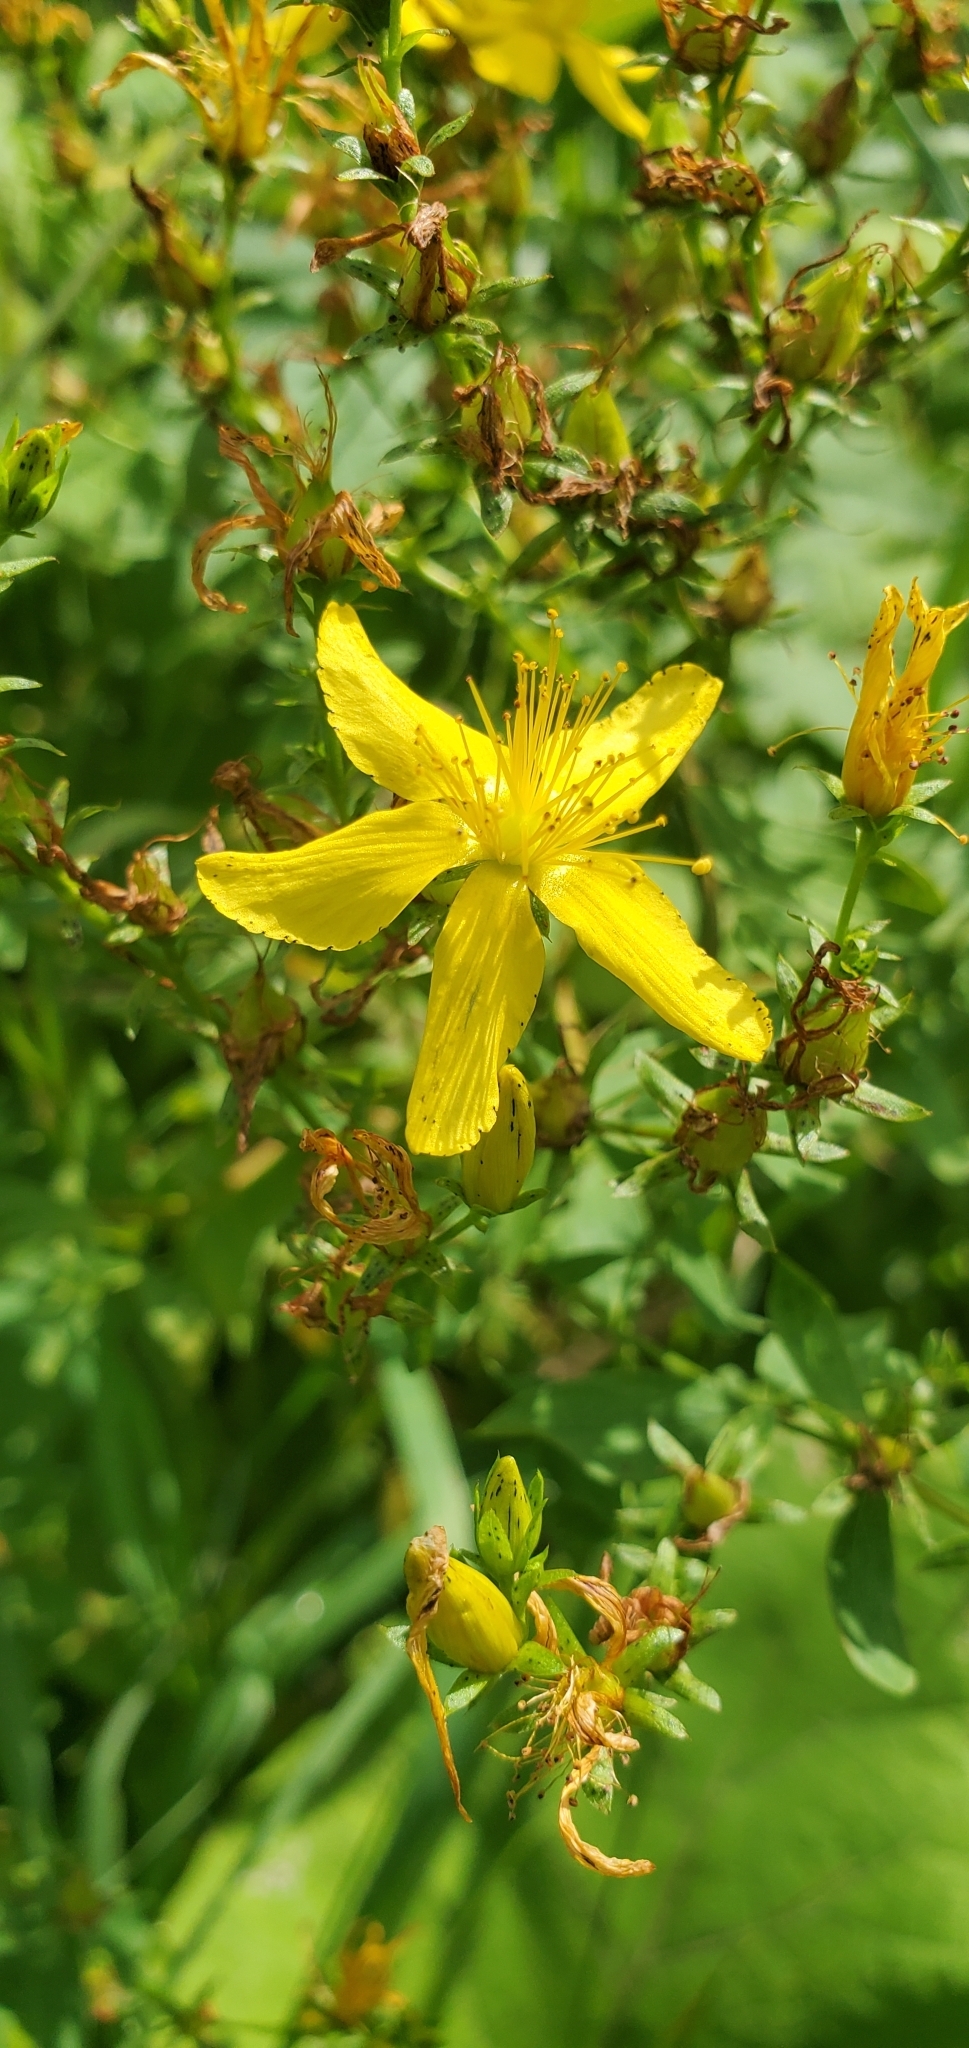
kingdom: Plantae
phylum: Tracheophyta
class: Magnoliopsida
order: Malpighiales
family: Hypericaceae
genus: Hypericum
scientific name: Hypericum perforatum
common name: Common st. johnswort
